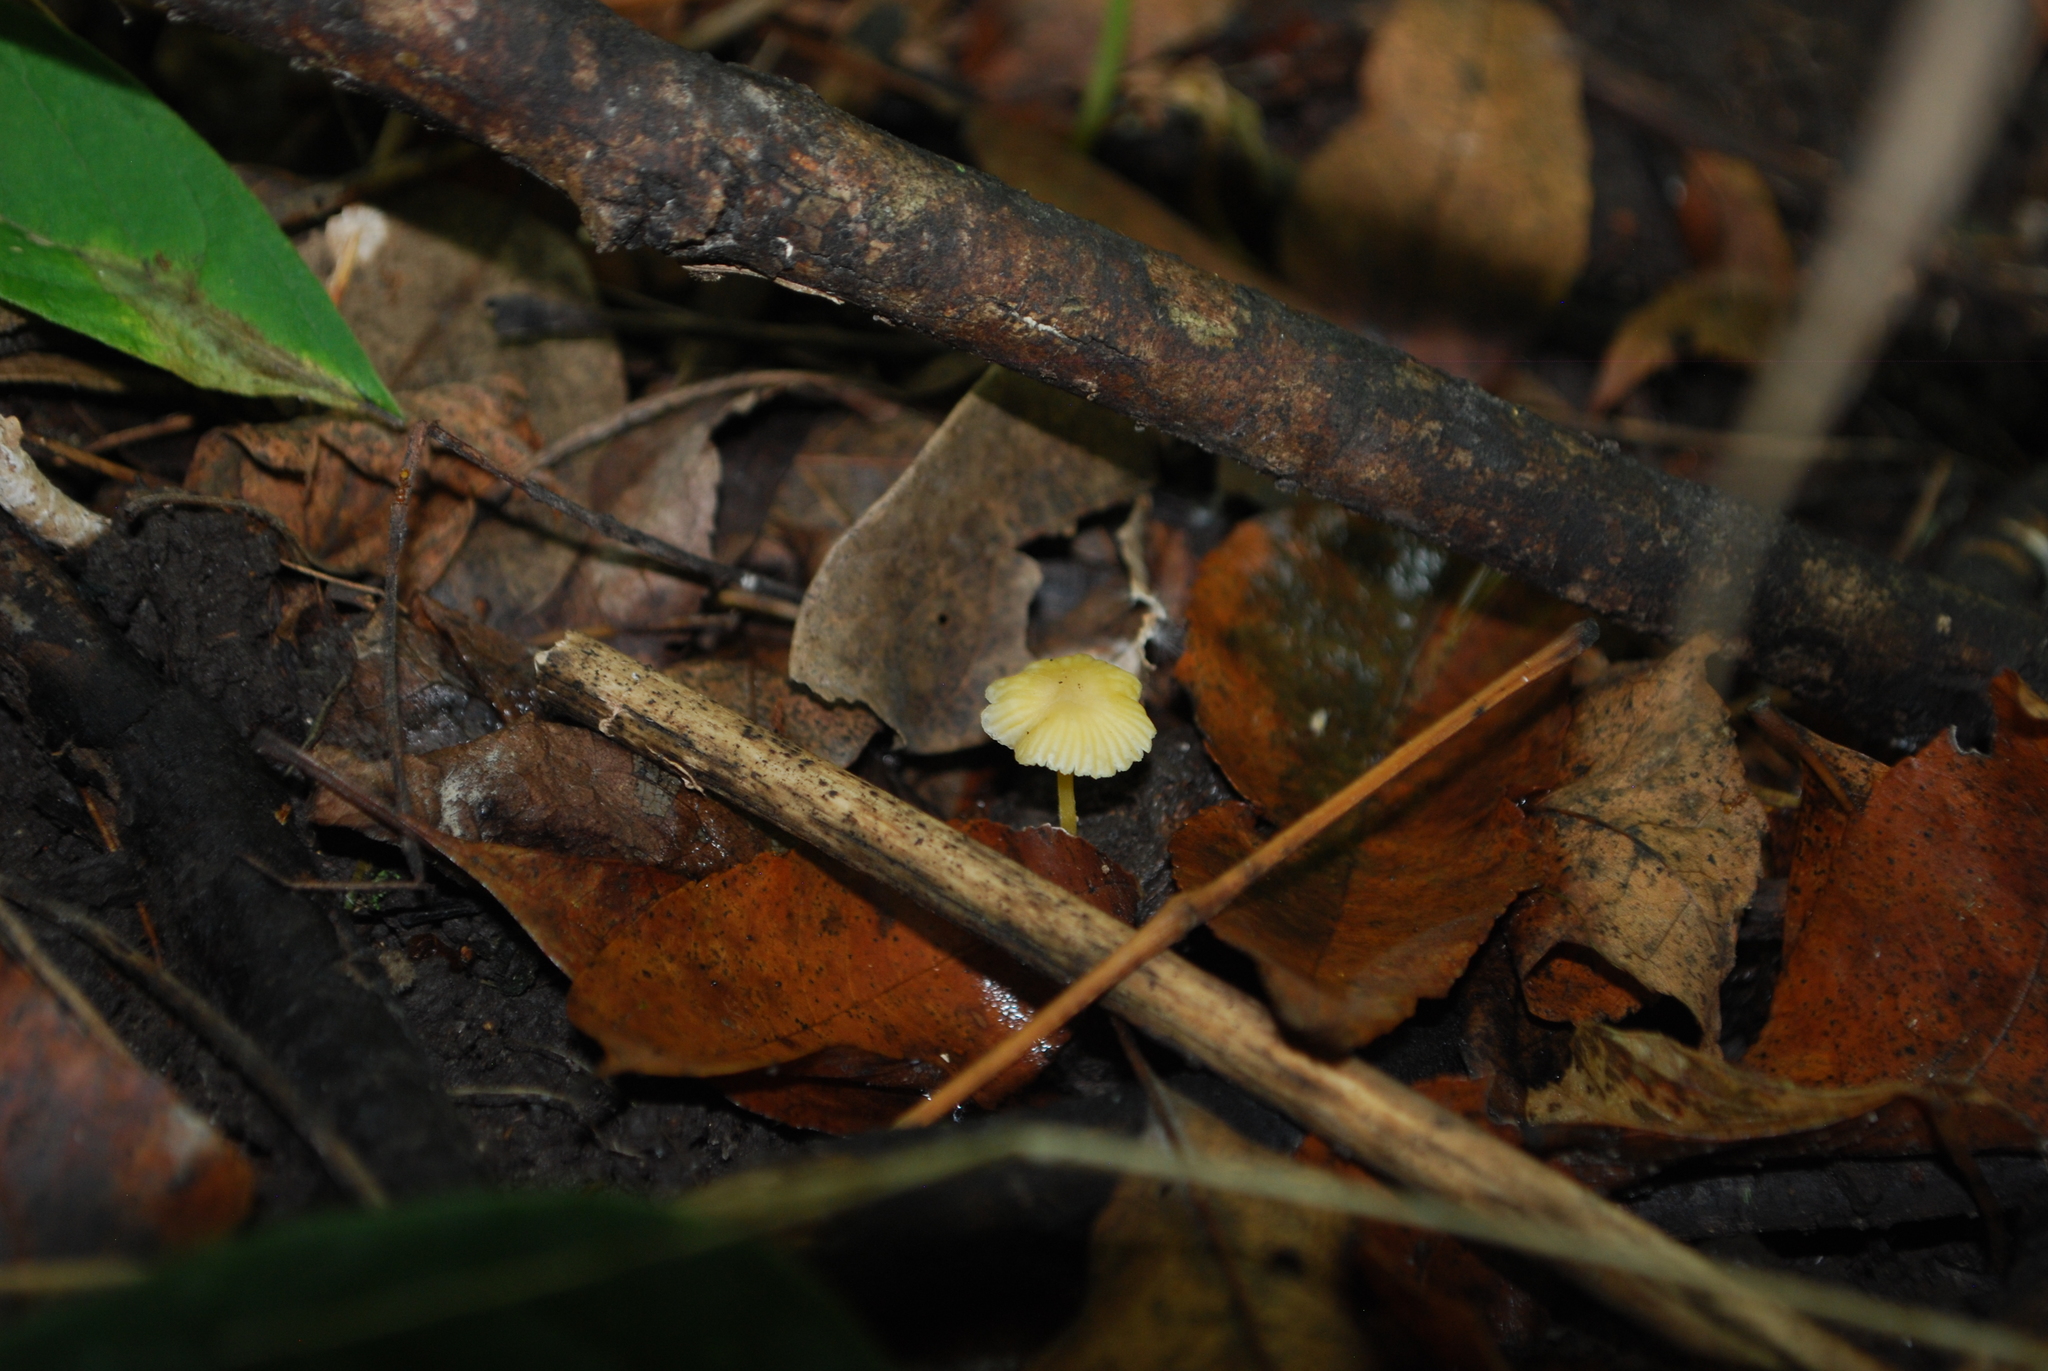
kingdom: Fungi
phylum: Basidiomycota
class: Agaricomycetes
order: Agaricales
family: Mycenaceae
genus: Mycena
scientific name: Mycena crocea
